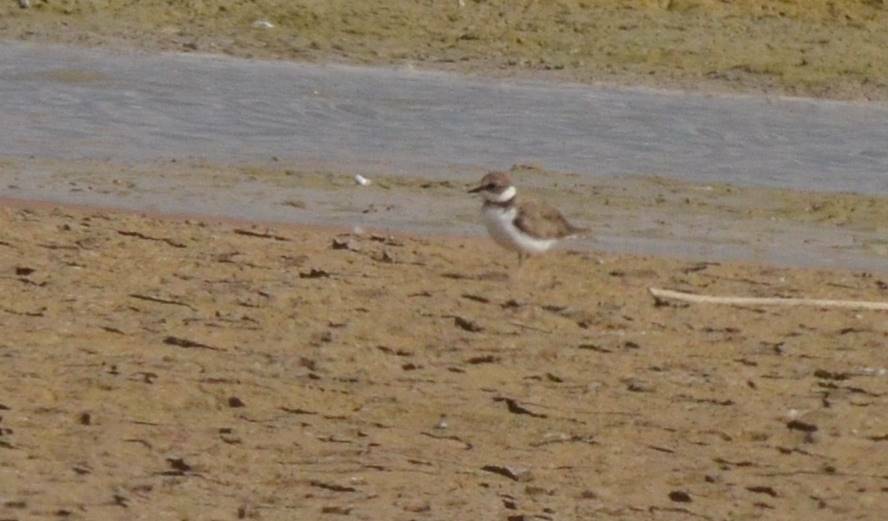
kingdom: Animalia
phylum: Chordata
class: Aves
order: Charadriiformes
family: Charadriidae
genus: Charadrius
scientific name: Charadrius dubius
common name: Little ringed plover
